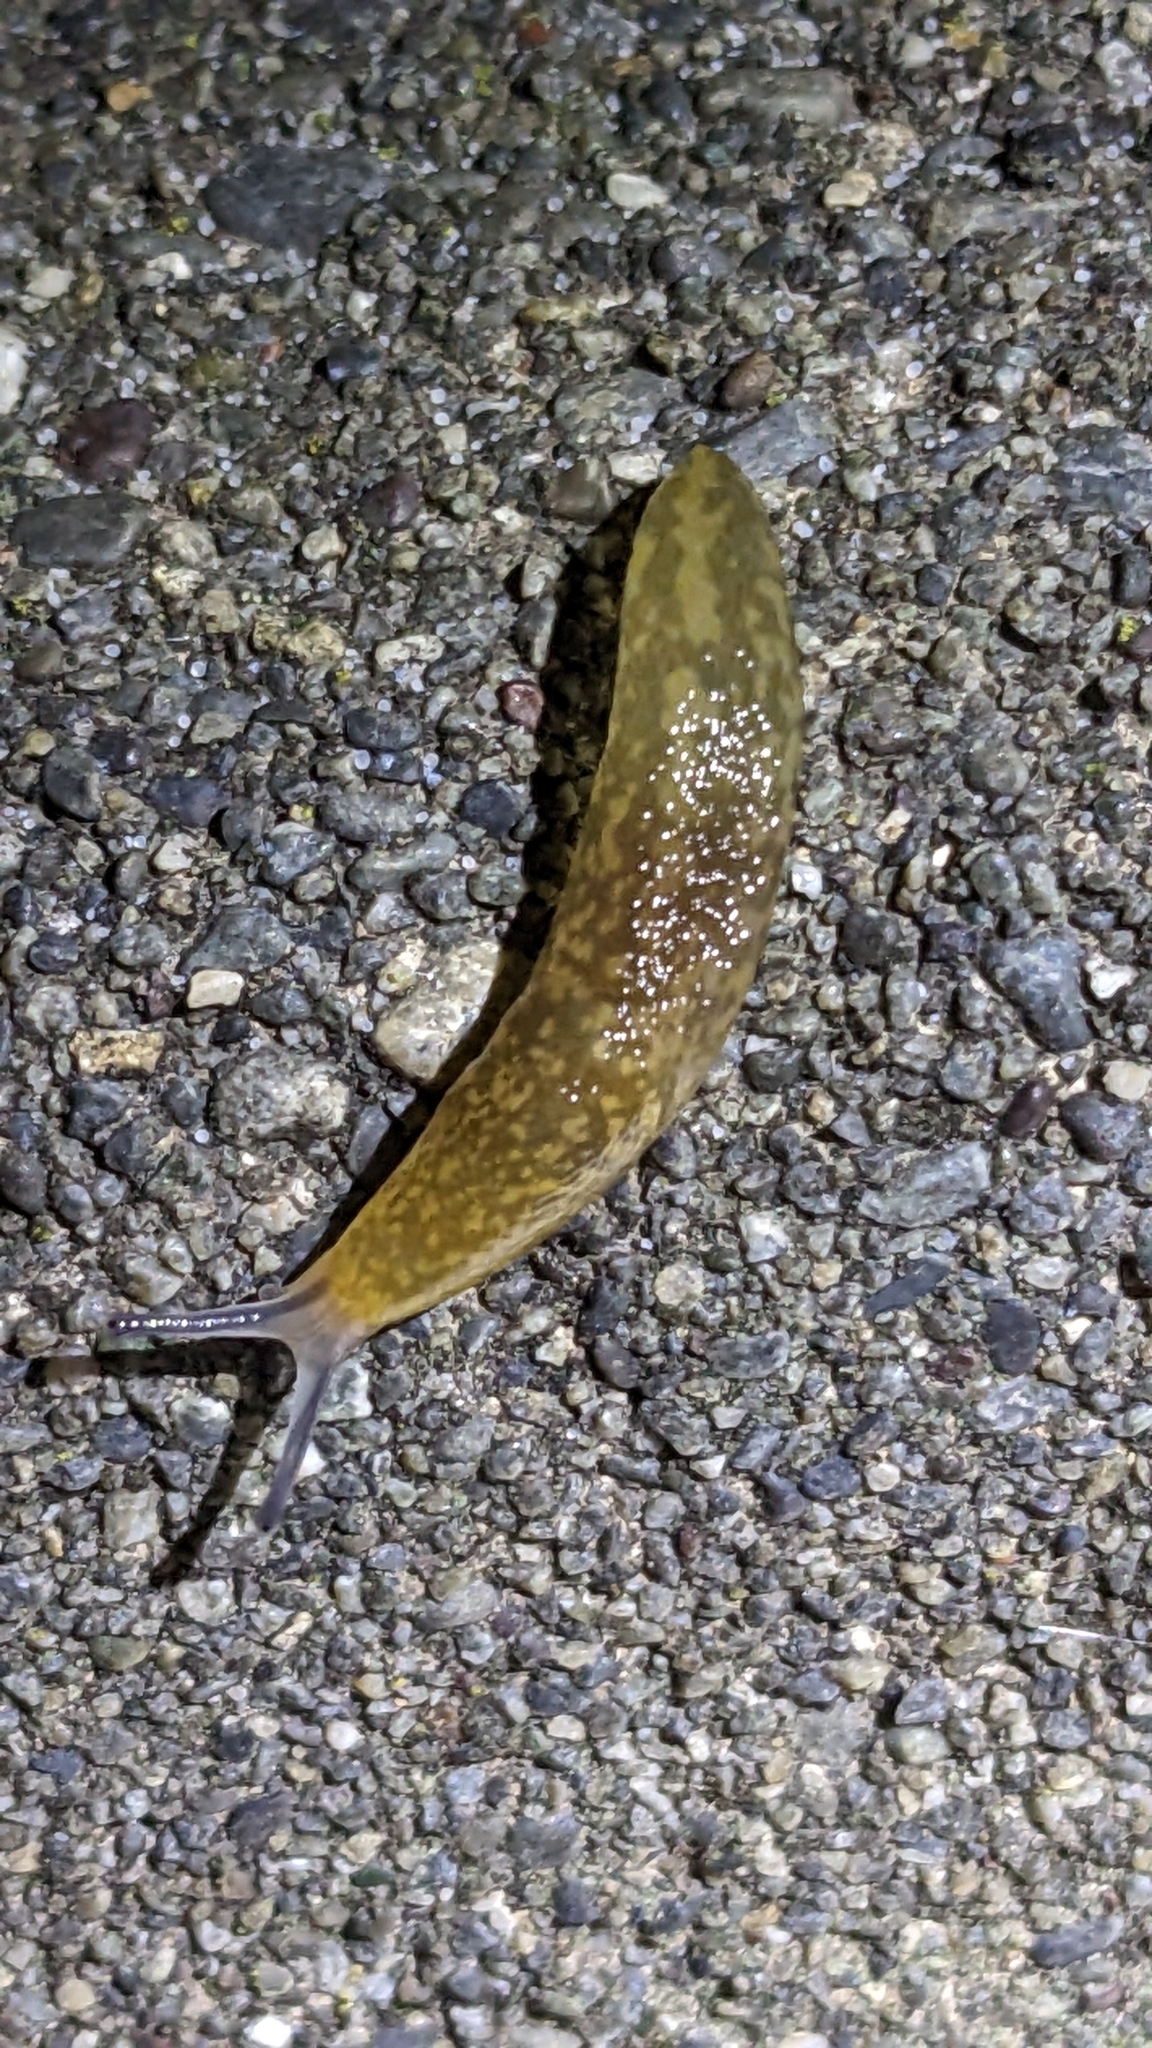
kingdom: Animalia
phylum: Mollusca
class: Gastropoda
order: Stylommatophora
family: Limacidae
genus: Limacus
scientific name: Limacus flavus
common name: Yellow gardenslug
